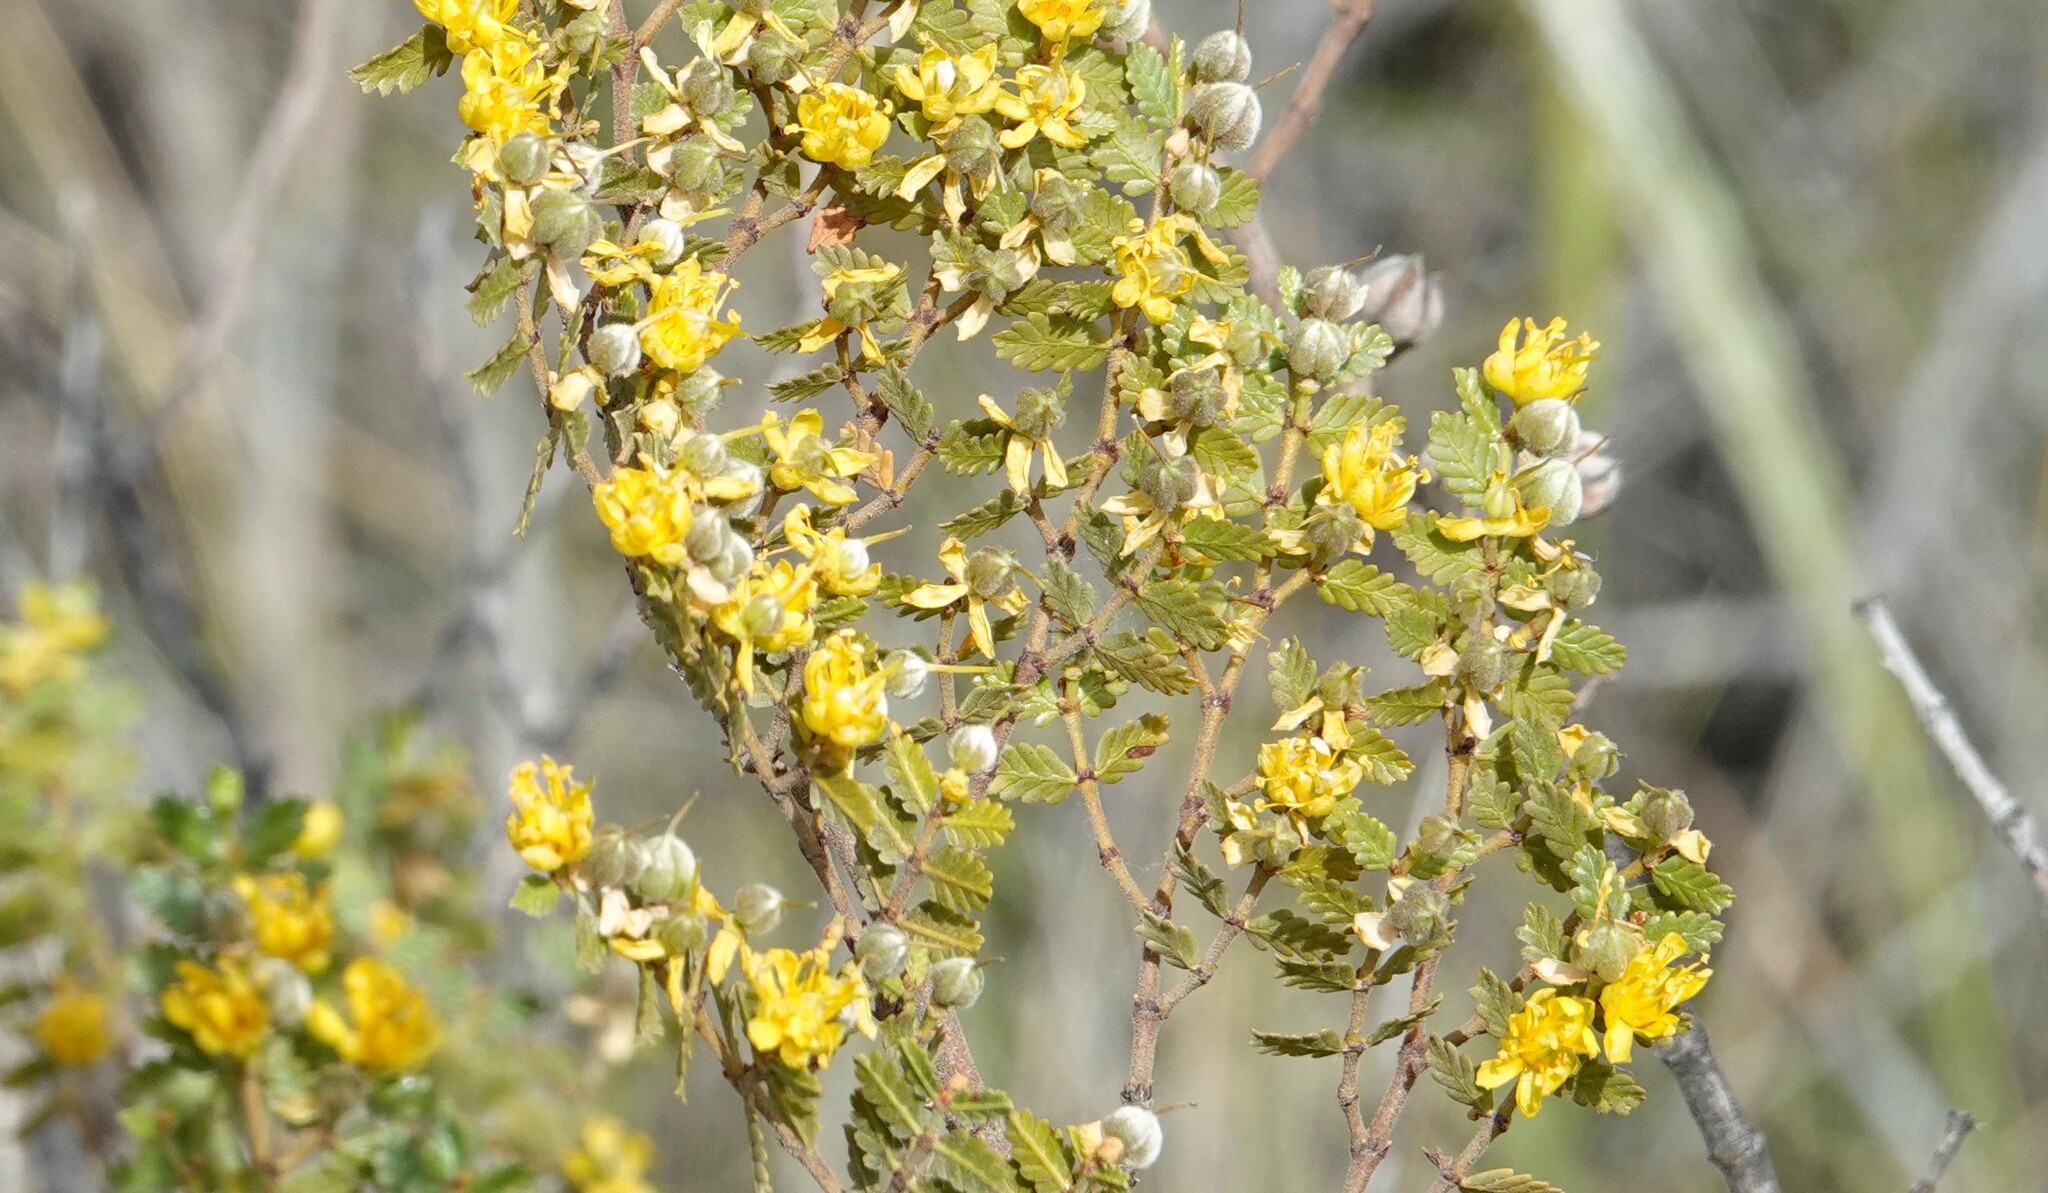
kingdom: Plantae
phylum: Tracheophyta
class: Magnoliopsida
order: Zygophyllales
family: Zygophyllaceae
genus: Larrea
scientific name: Larrea nitida
